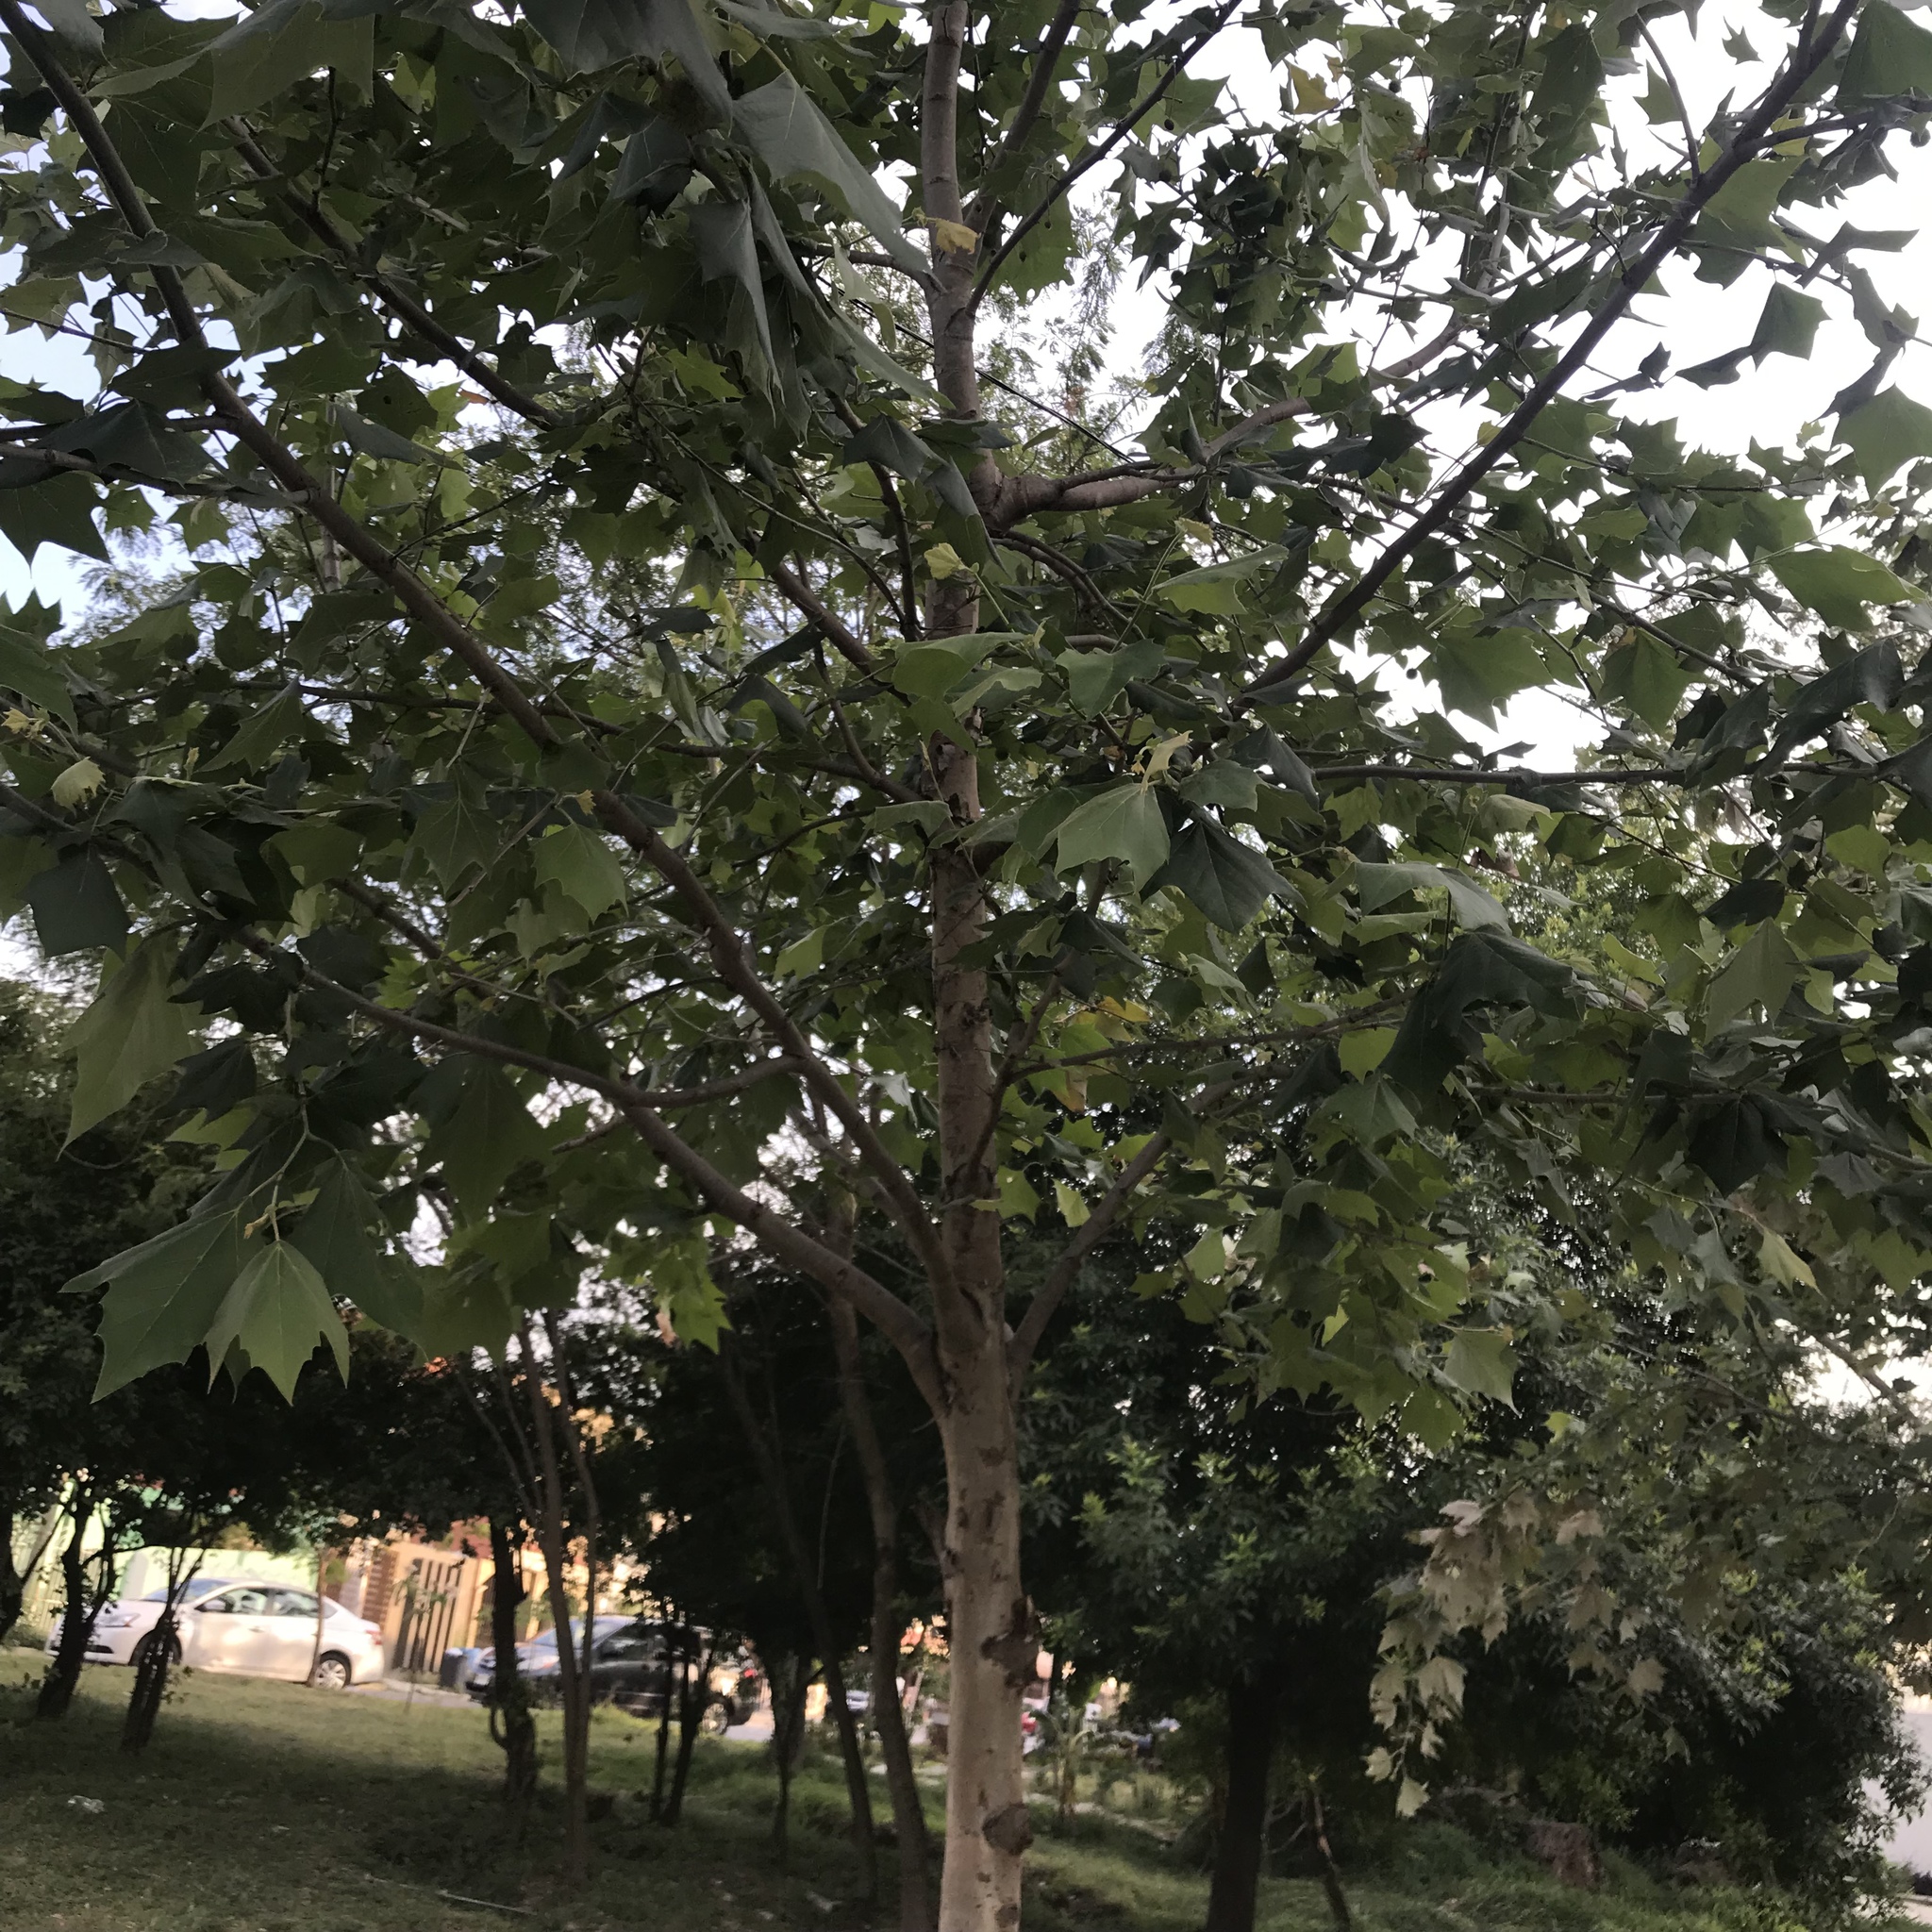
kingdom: Plantae
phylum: Tracheophyta
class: Magnoliopsida
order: Proteales
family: Platanaceae
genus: Platanus
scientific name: Platanus rzedowskii
